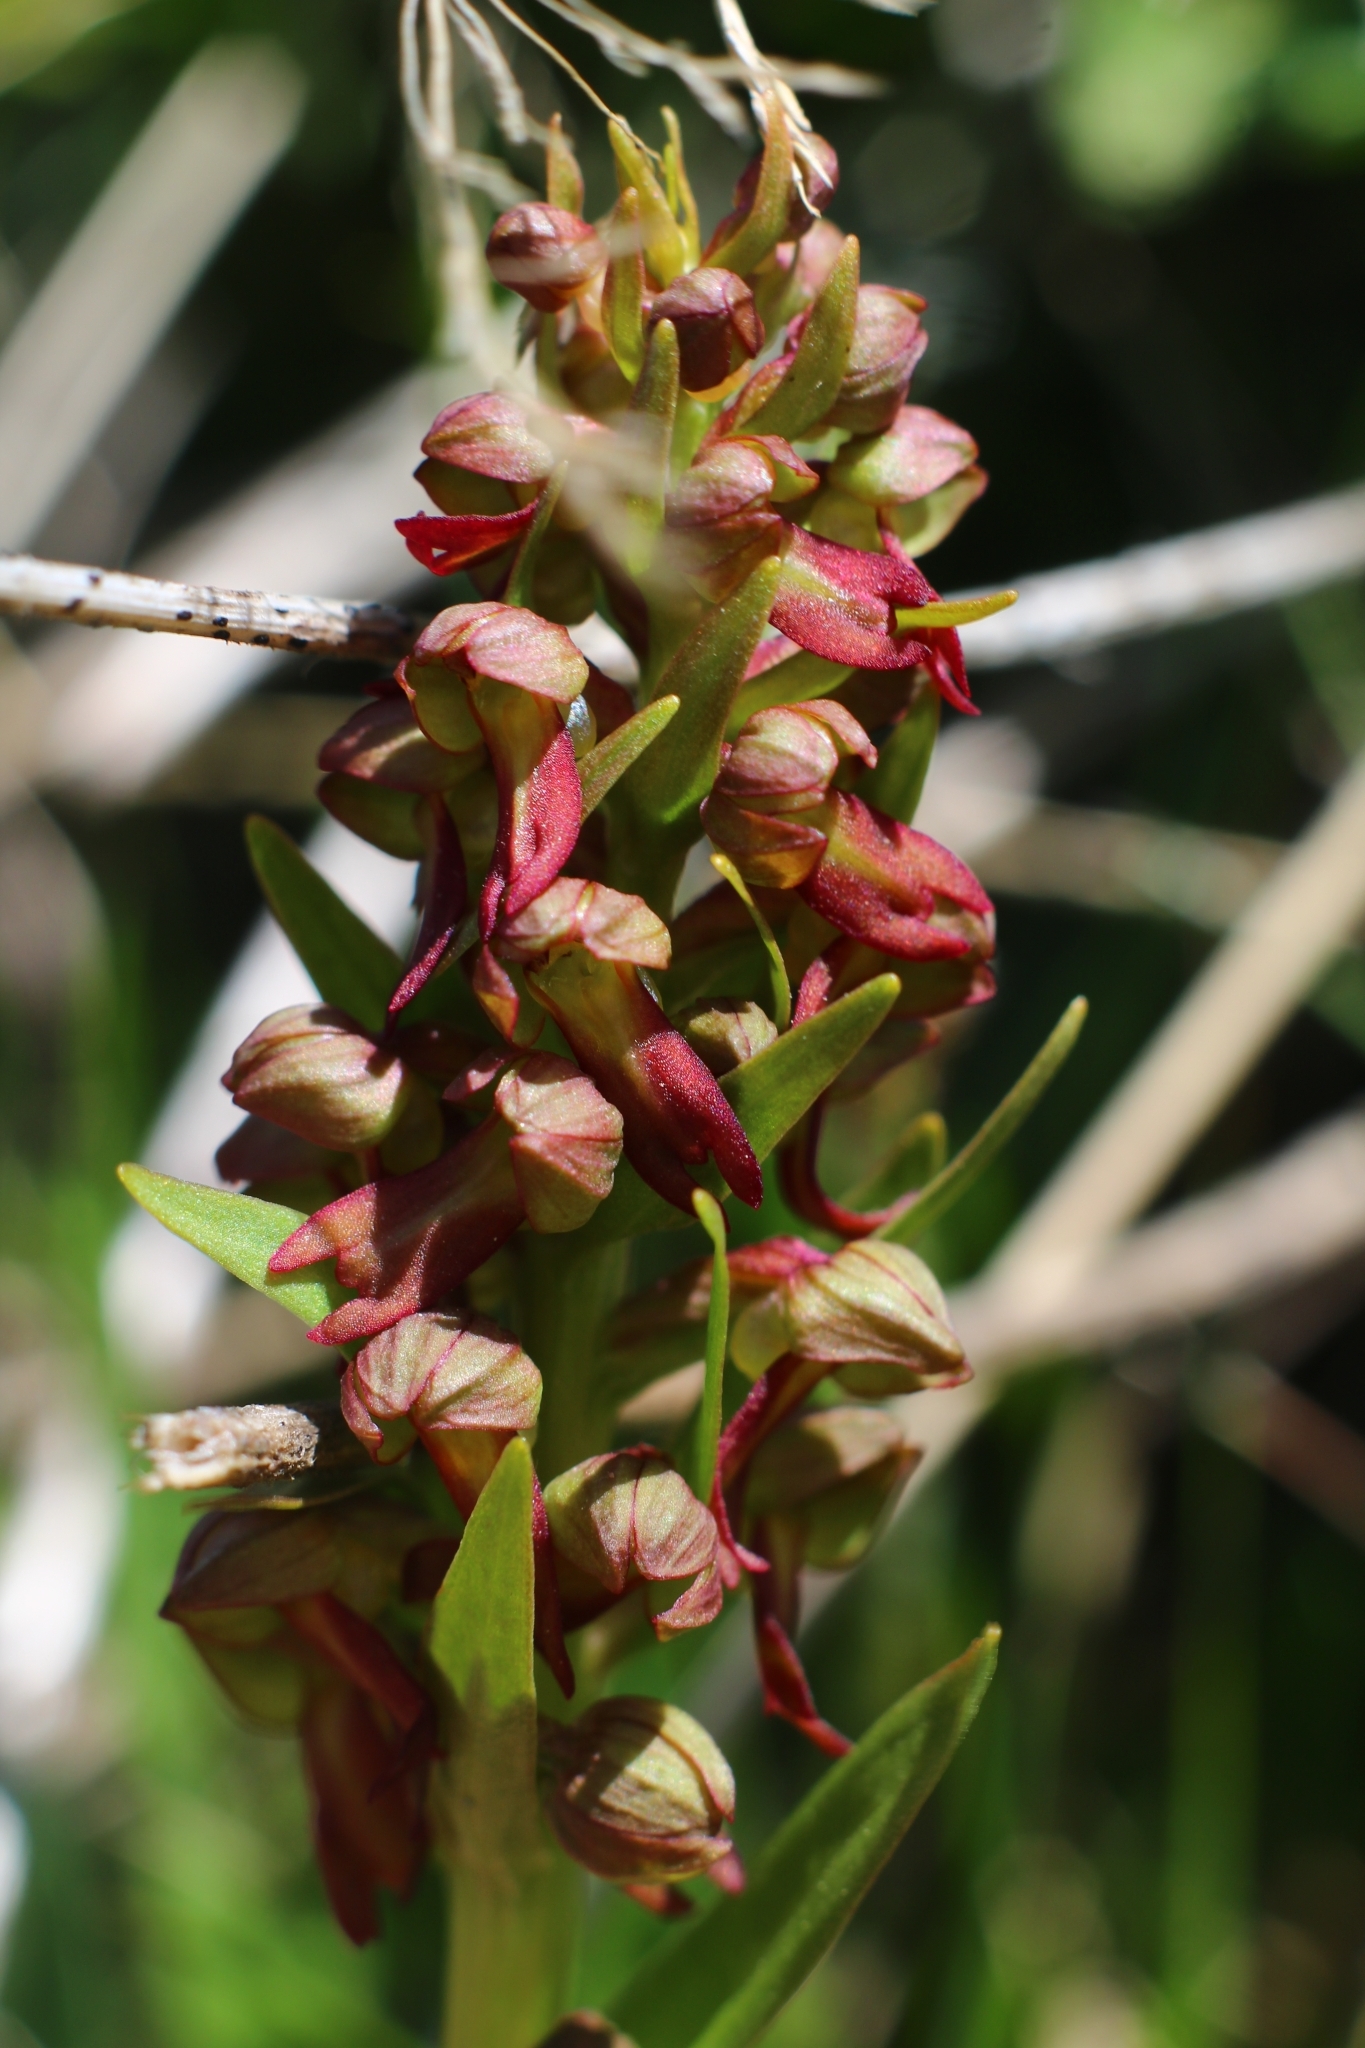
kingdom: Plantae
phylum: Tracheophyta
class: Liliopsida
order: Asparagales
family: Orchidaceae
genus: Dactylorhiza
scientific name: Dactylorhiza viridis
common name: Longbract frog orchid
